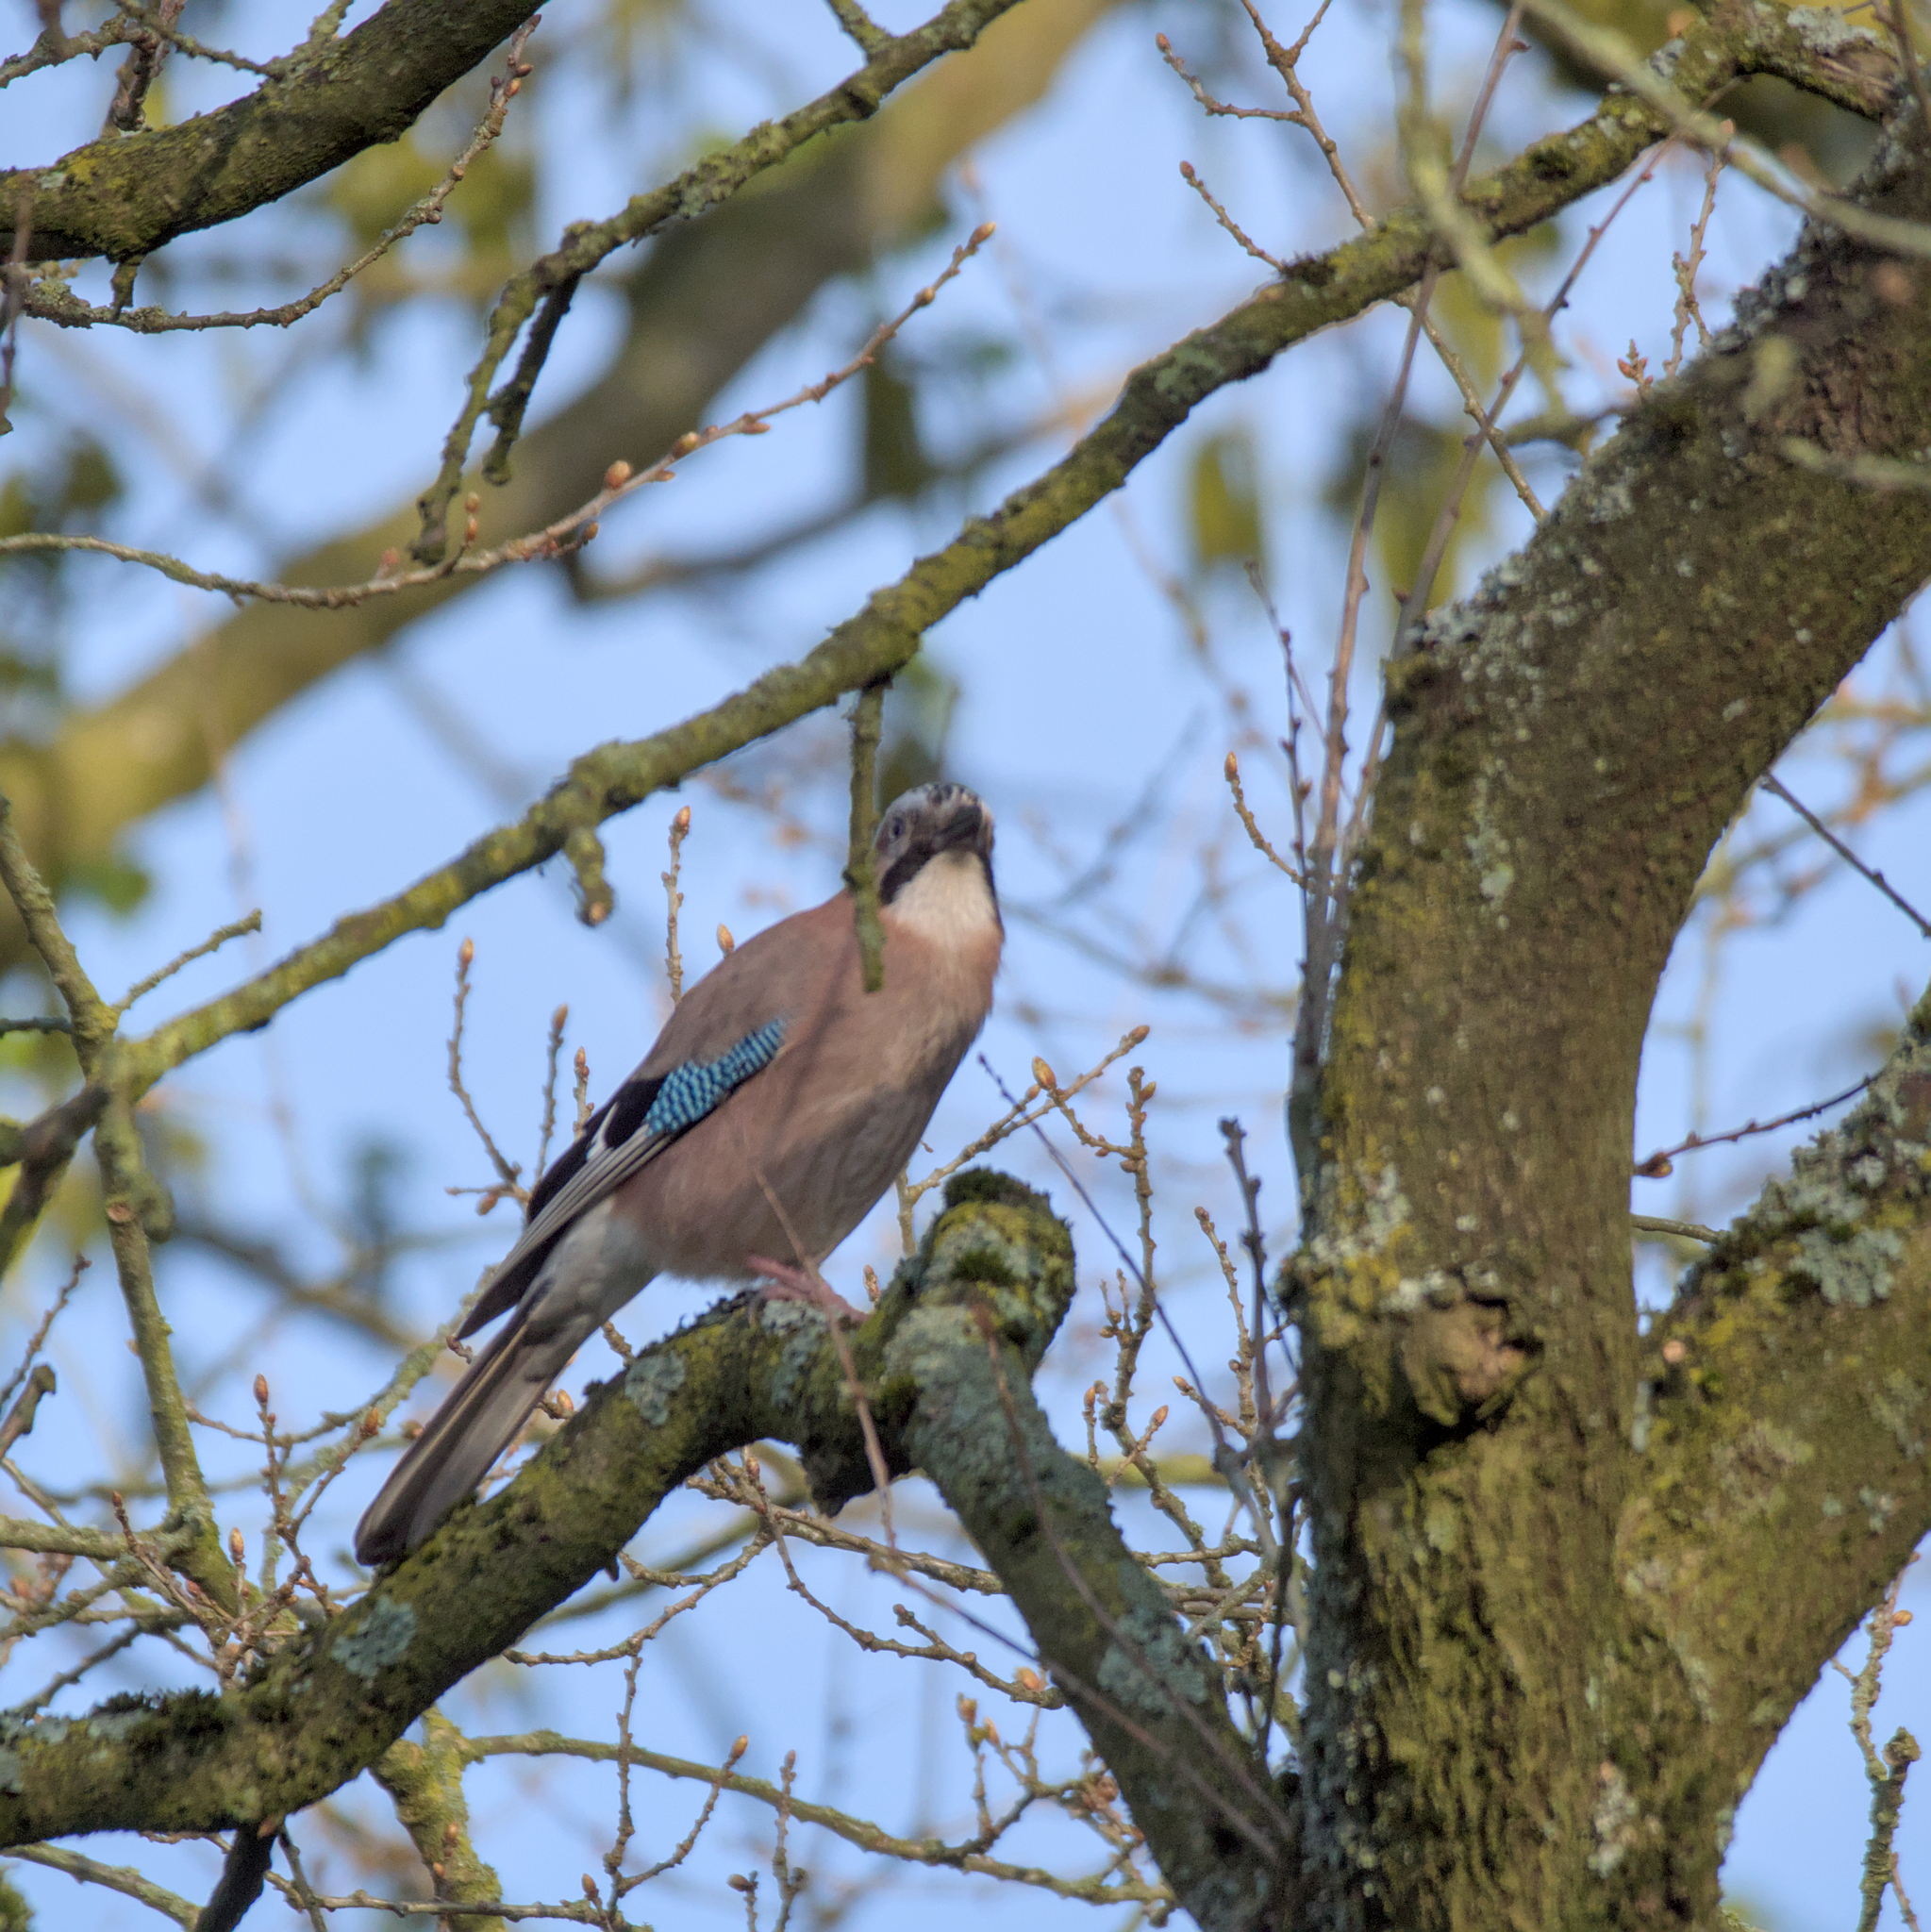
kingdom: Animalia
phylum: Chordata
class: Aves
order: Passeriformes
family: Corvidae
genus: Garrulus
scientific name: Garrulus glandarius
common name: Eurasian jay
